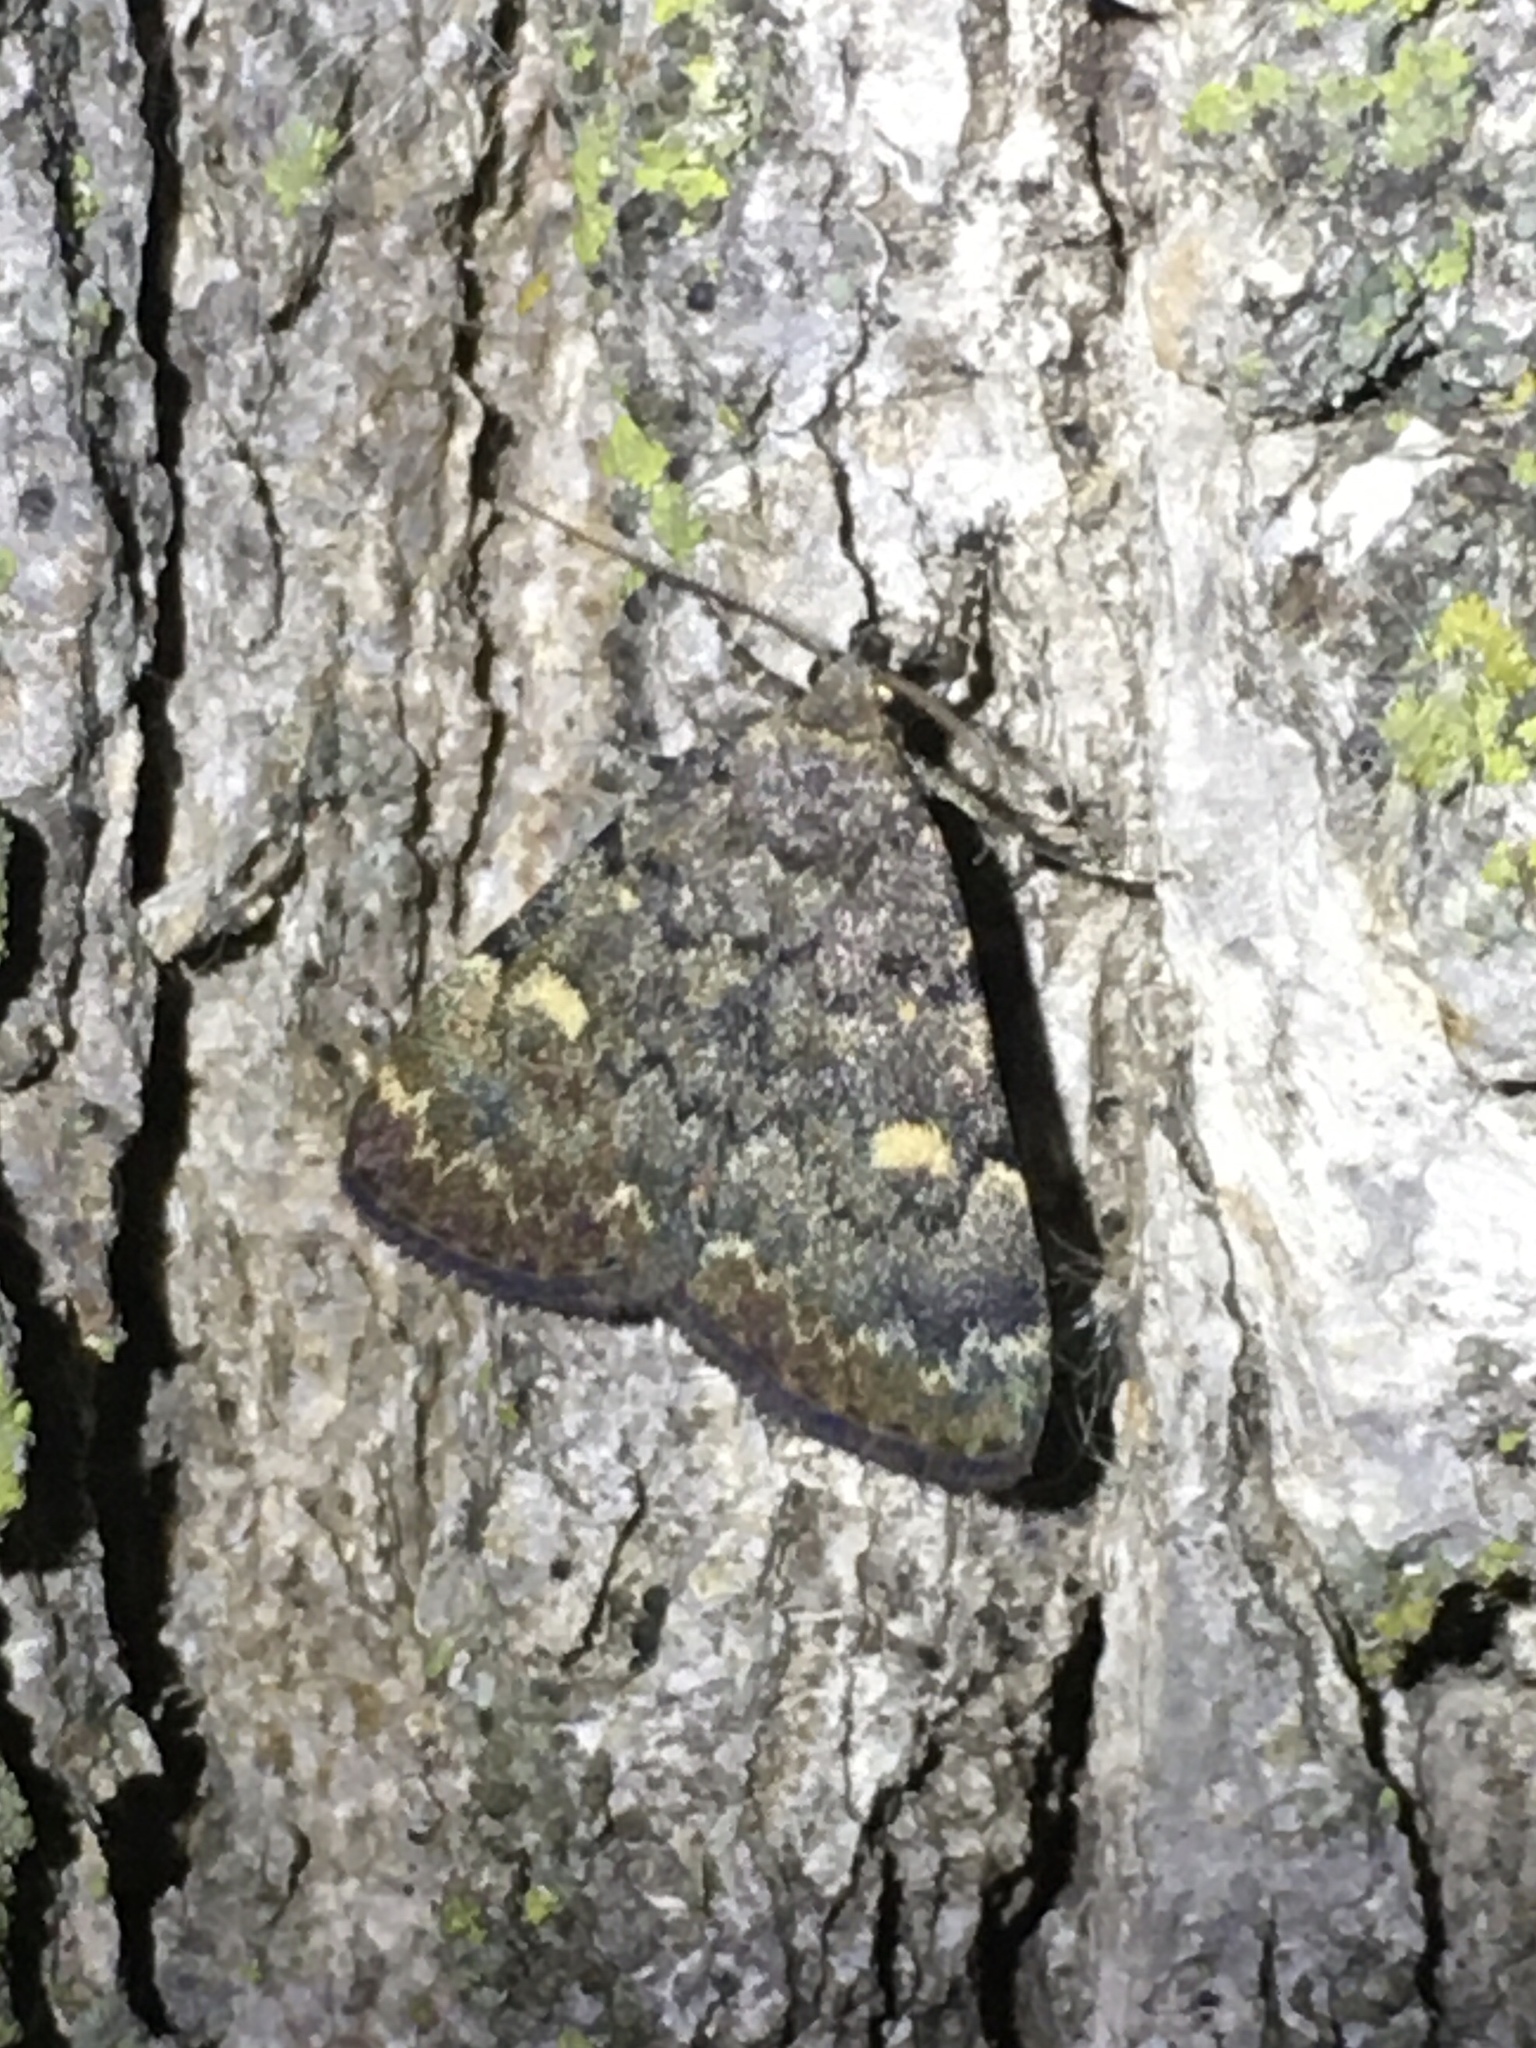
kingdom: Animalia
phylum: Arthropoda
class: Insecta
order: Lepidoptera
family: Erebidae
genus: Idia
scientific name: Idia aemula
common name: Common idia moth
